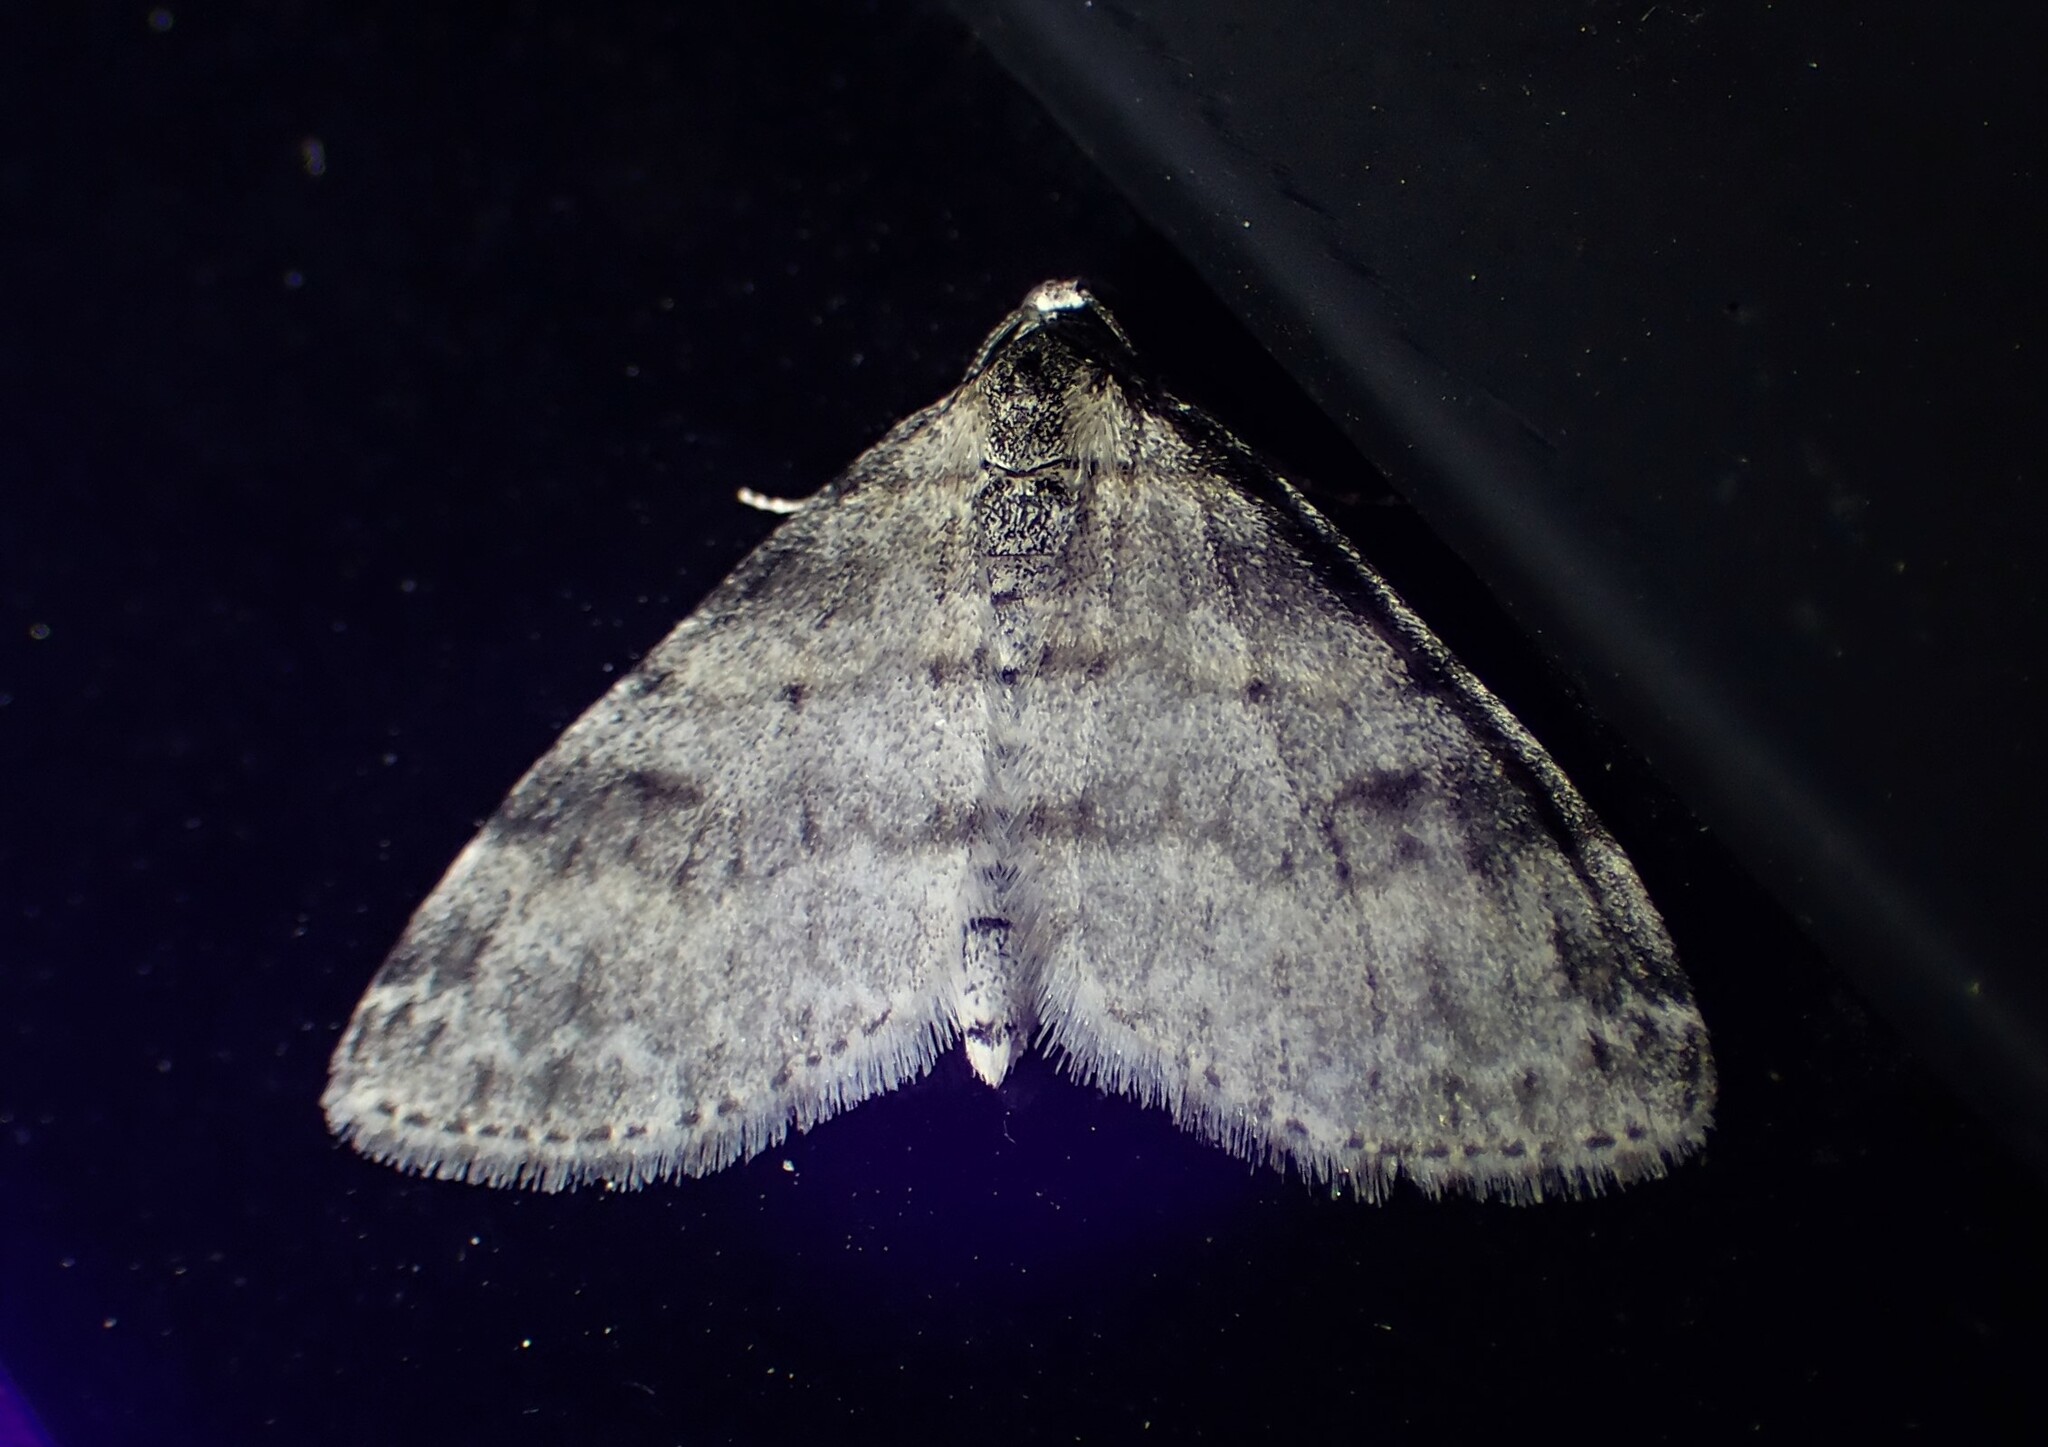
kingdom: Animalia
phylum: Arthropoda
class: Insecta
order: Lepidoptera
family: Geometridae
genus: Lobophora
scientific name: Lobophora nivigerata
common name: Powdered bigwing
